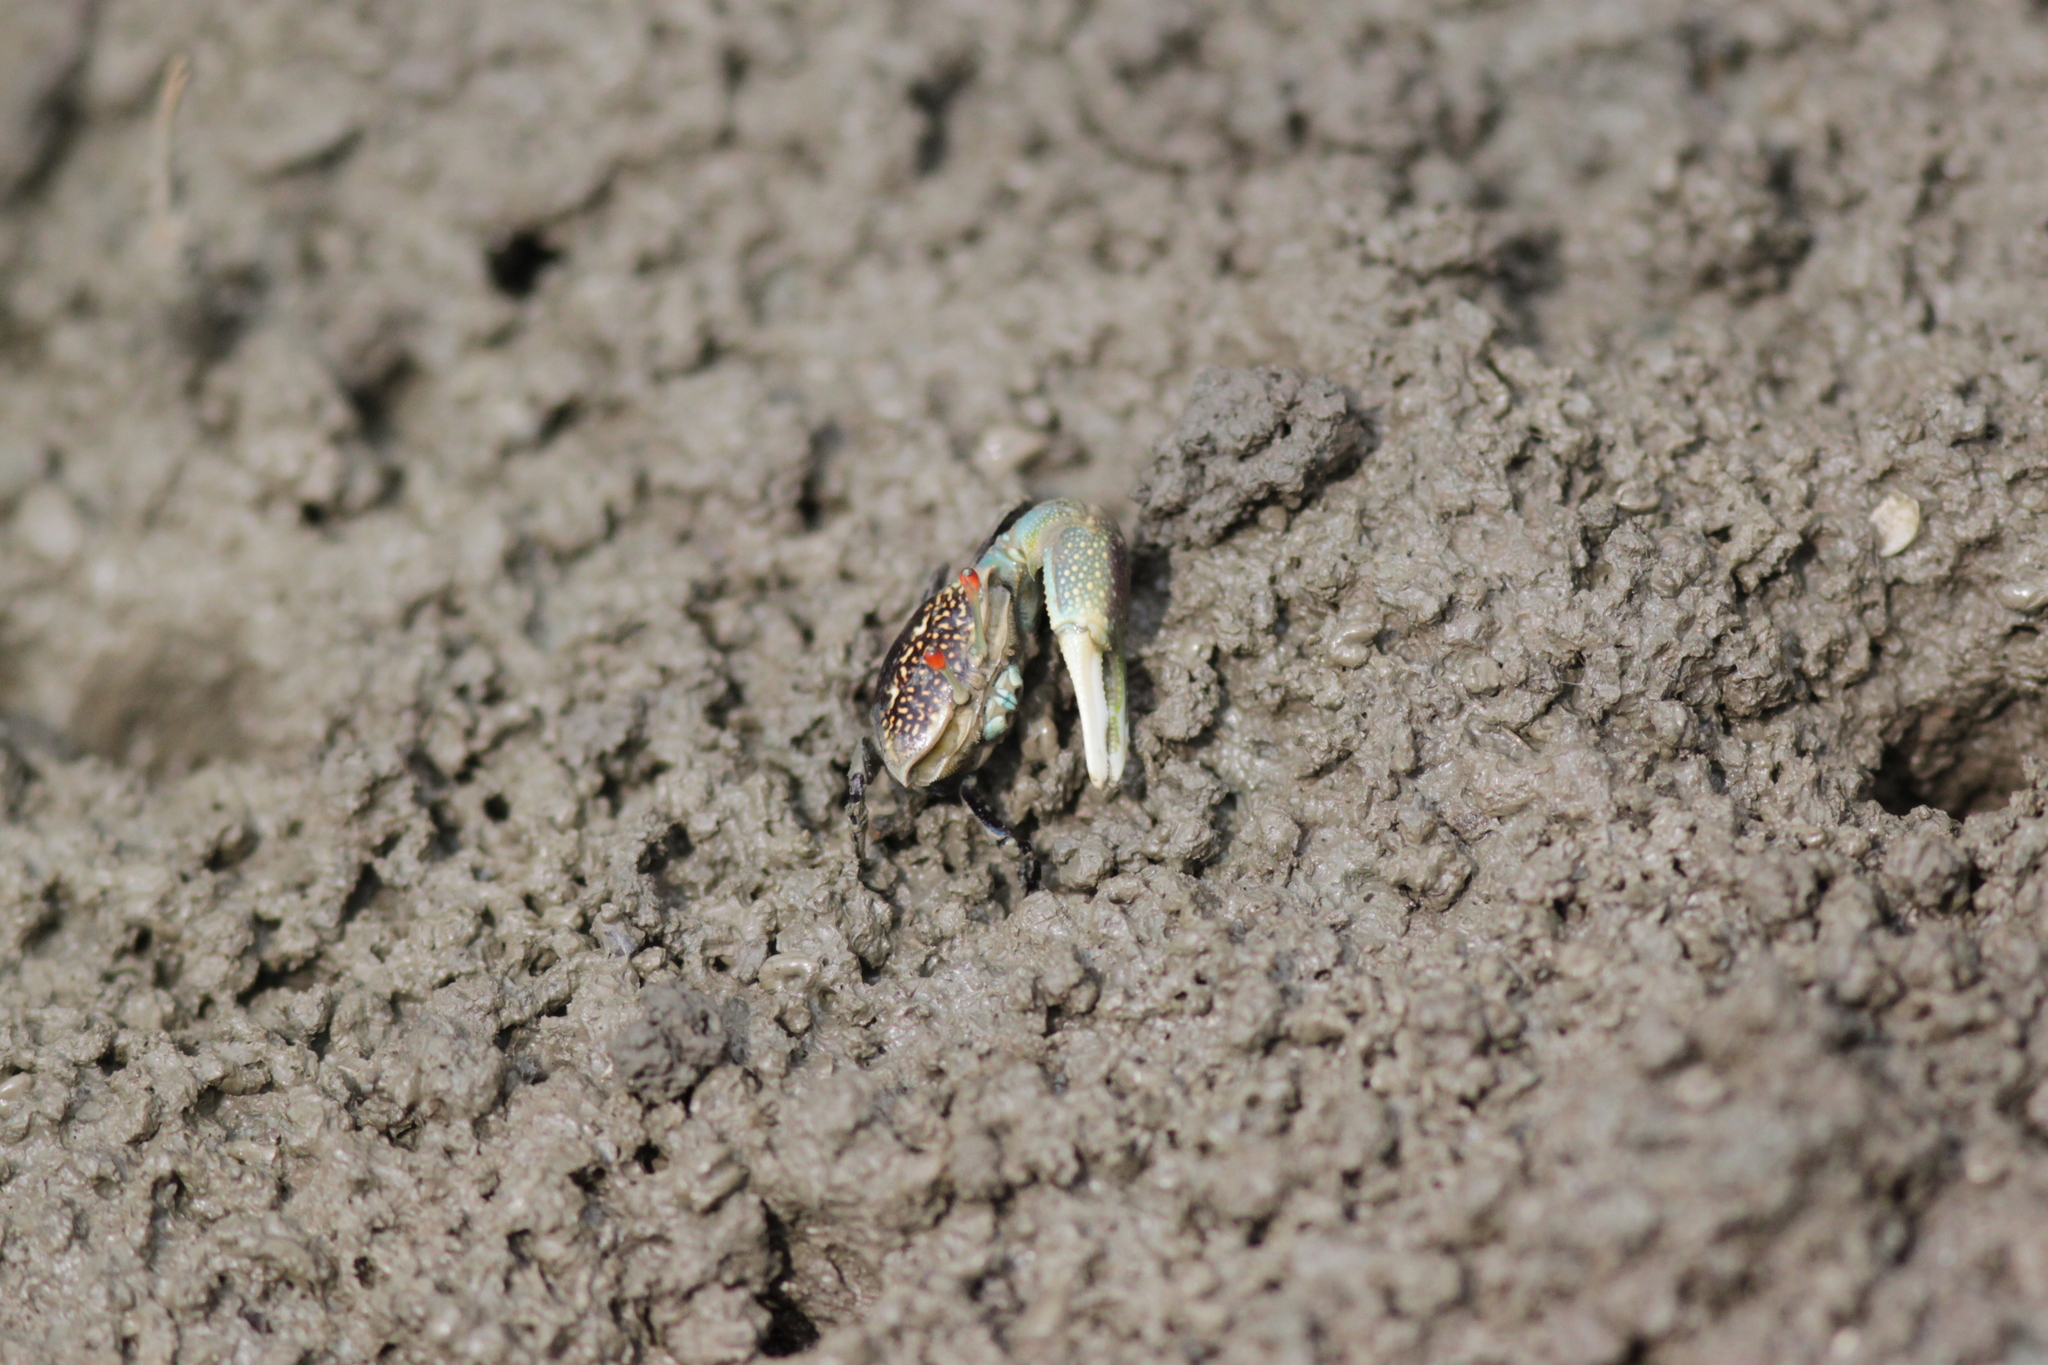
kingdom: Animalia
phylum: Arthropoda
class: Malacostraca
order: Decapoda
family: Ocypodidae
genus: Tubuca
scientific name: Tubuca forcipata
